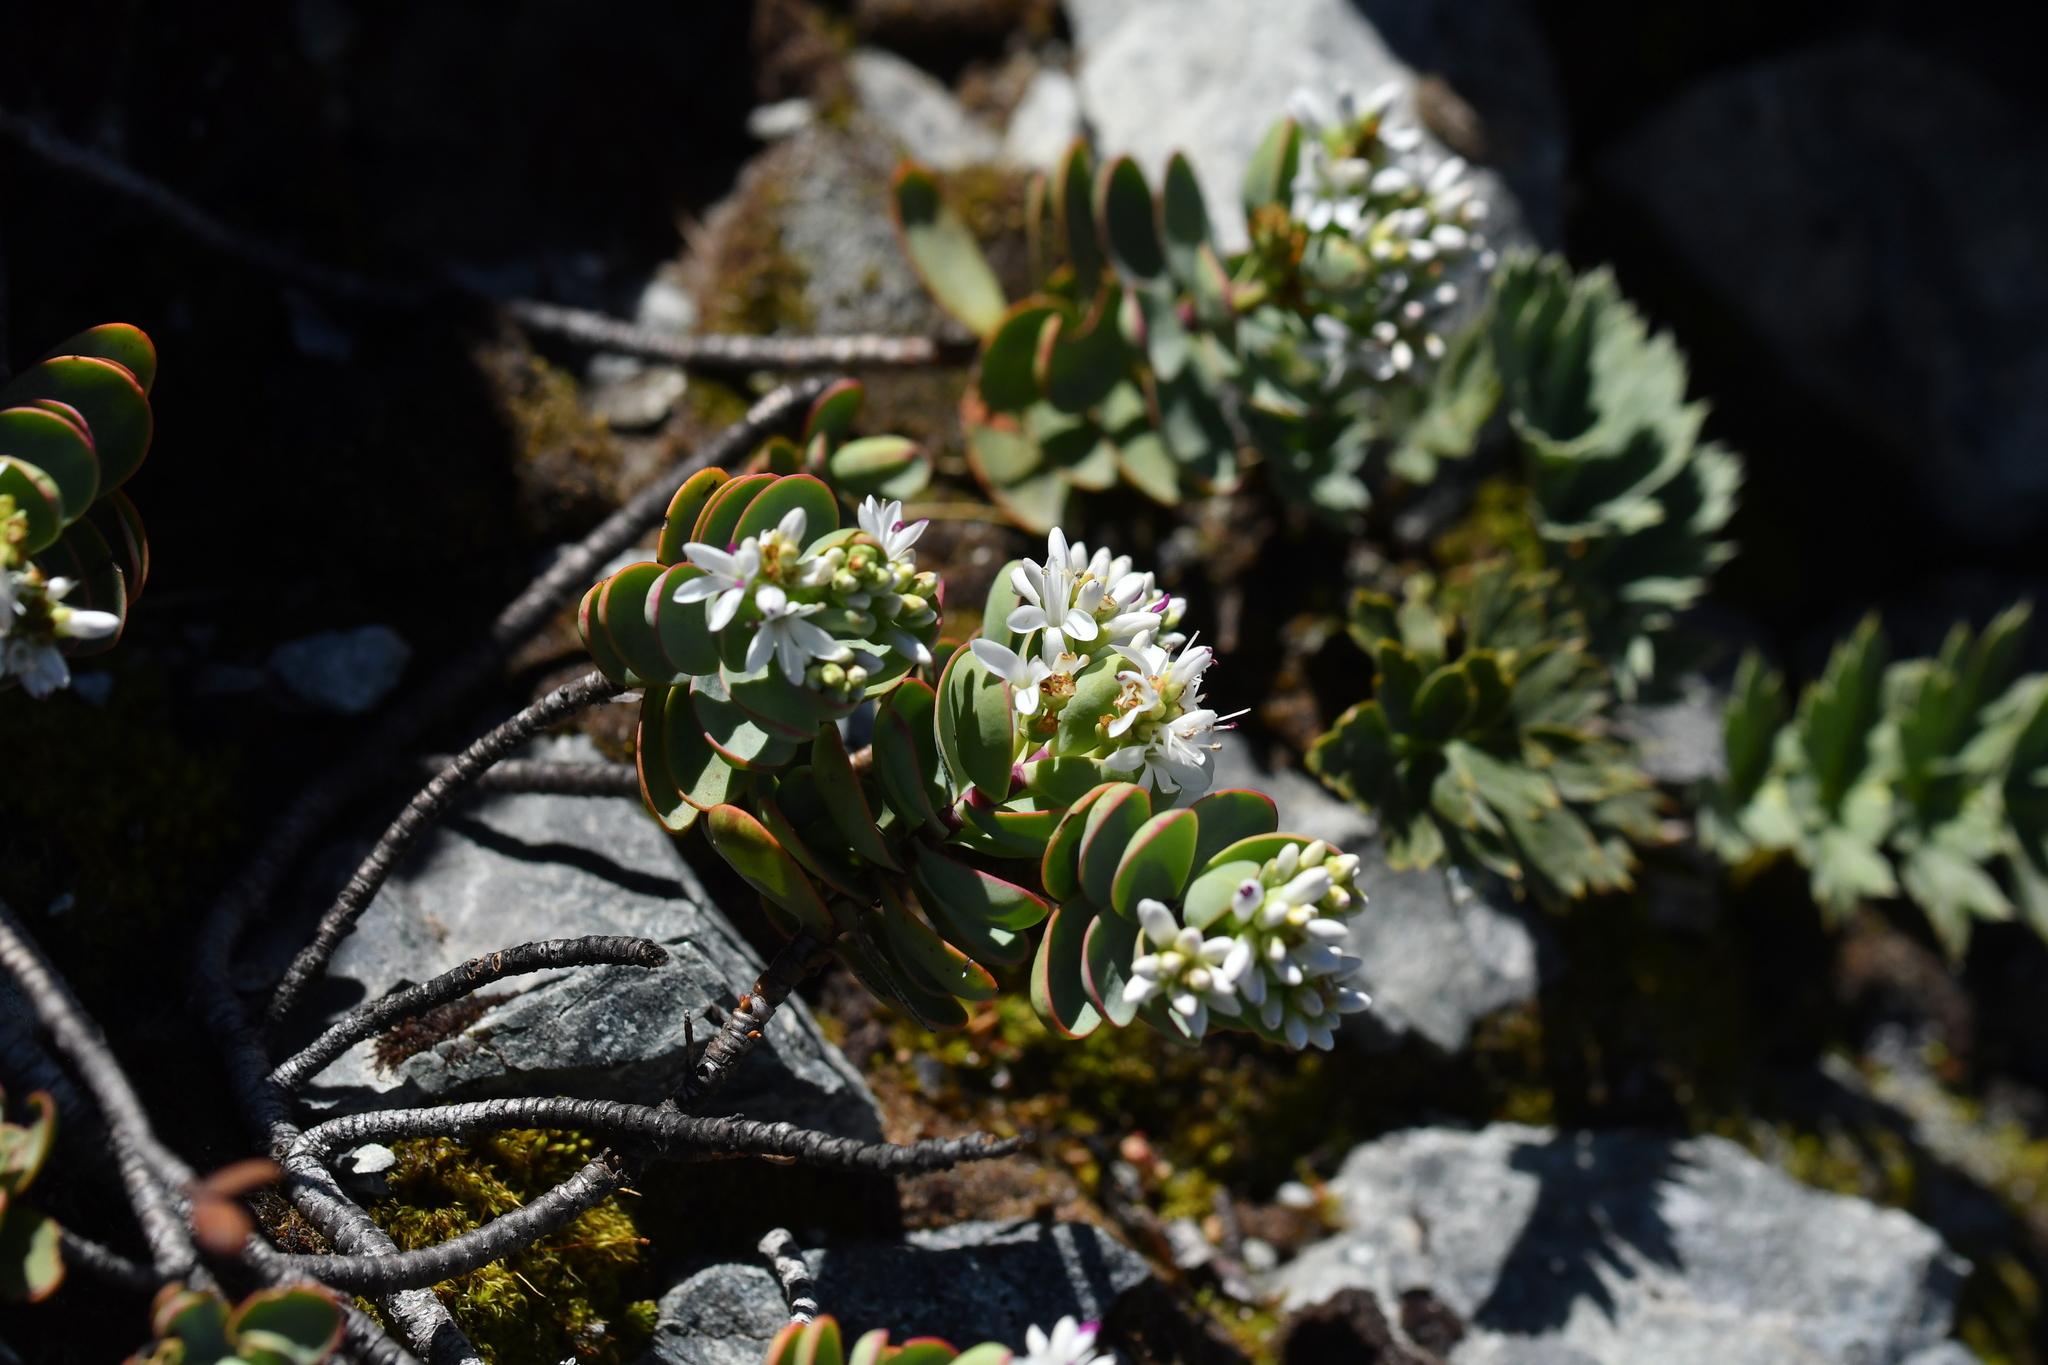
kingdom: Plantae
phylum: Tracheophyta
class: Magnoliopsida
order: Lamiales
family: Plantaginaceae
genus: Veronica
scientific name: Veronica pinguifolia
